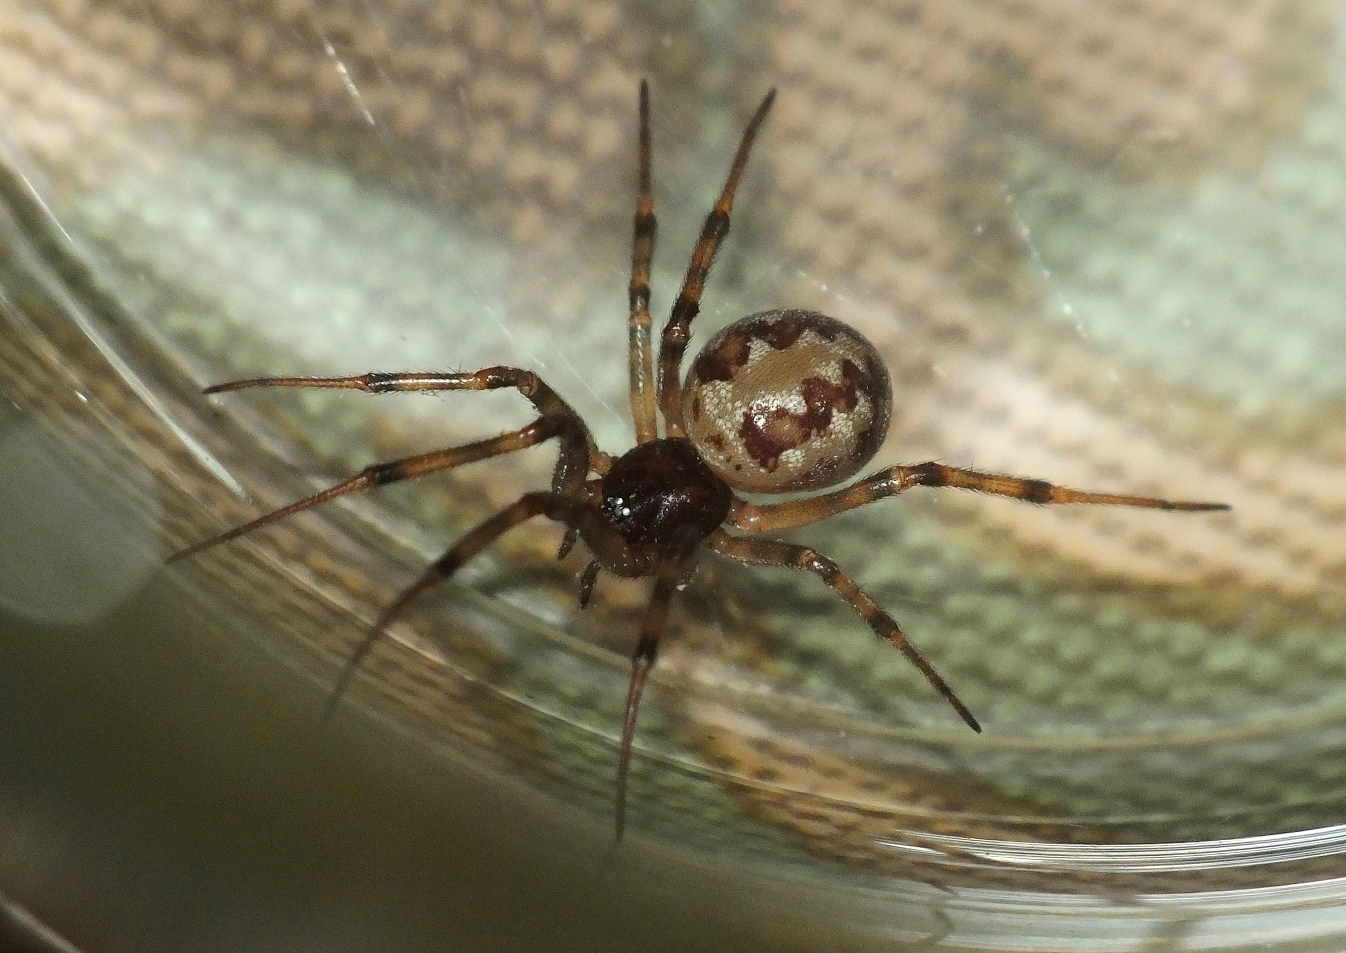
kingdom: Animalia
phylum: Arthropoda
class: Arachnida
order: Araneae
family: Theridiidae
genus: Steatoda
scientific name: Steatoda triangulosa
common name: Triangulate bud spider
